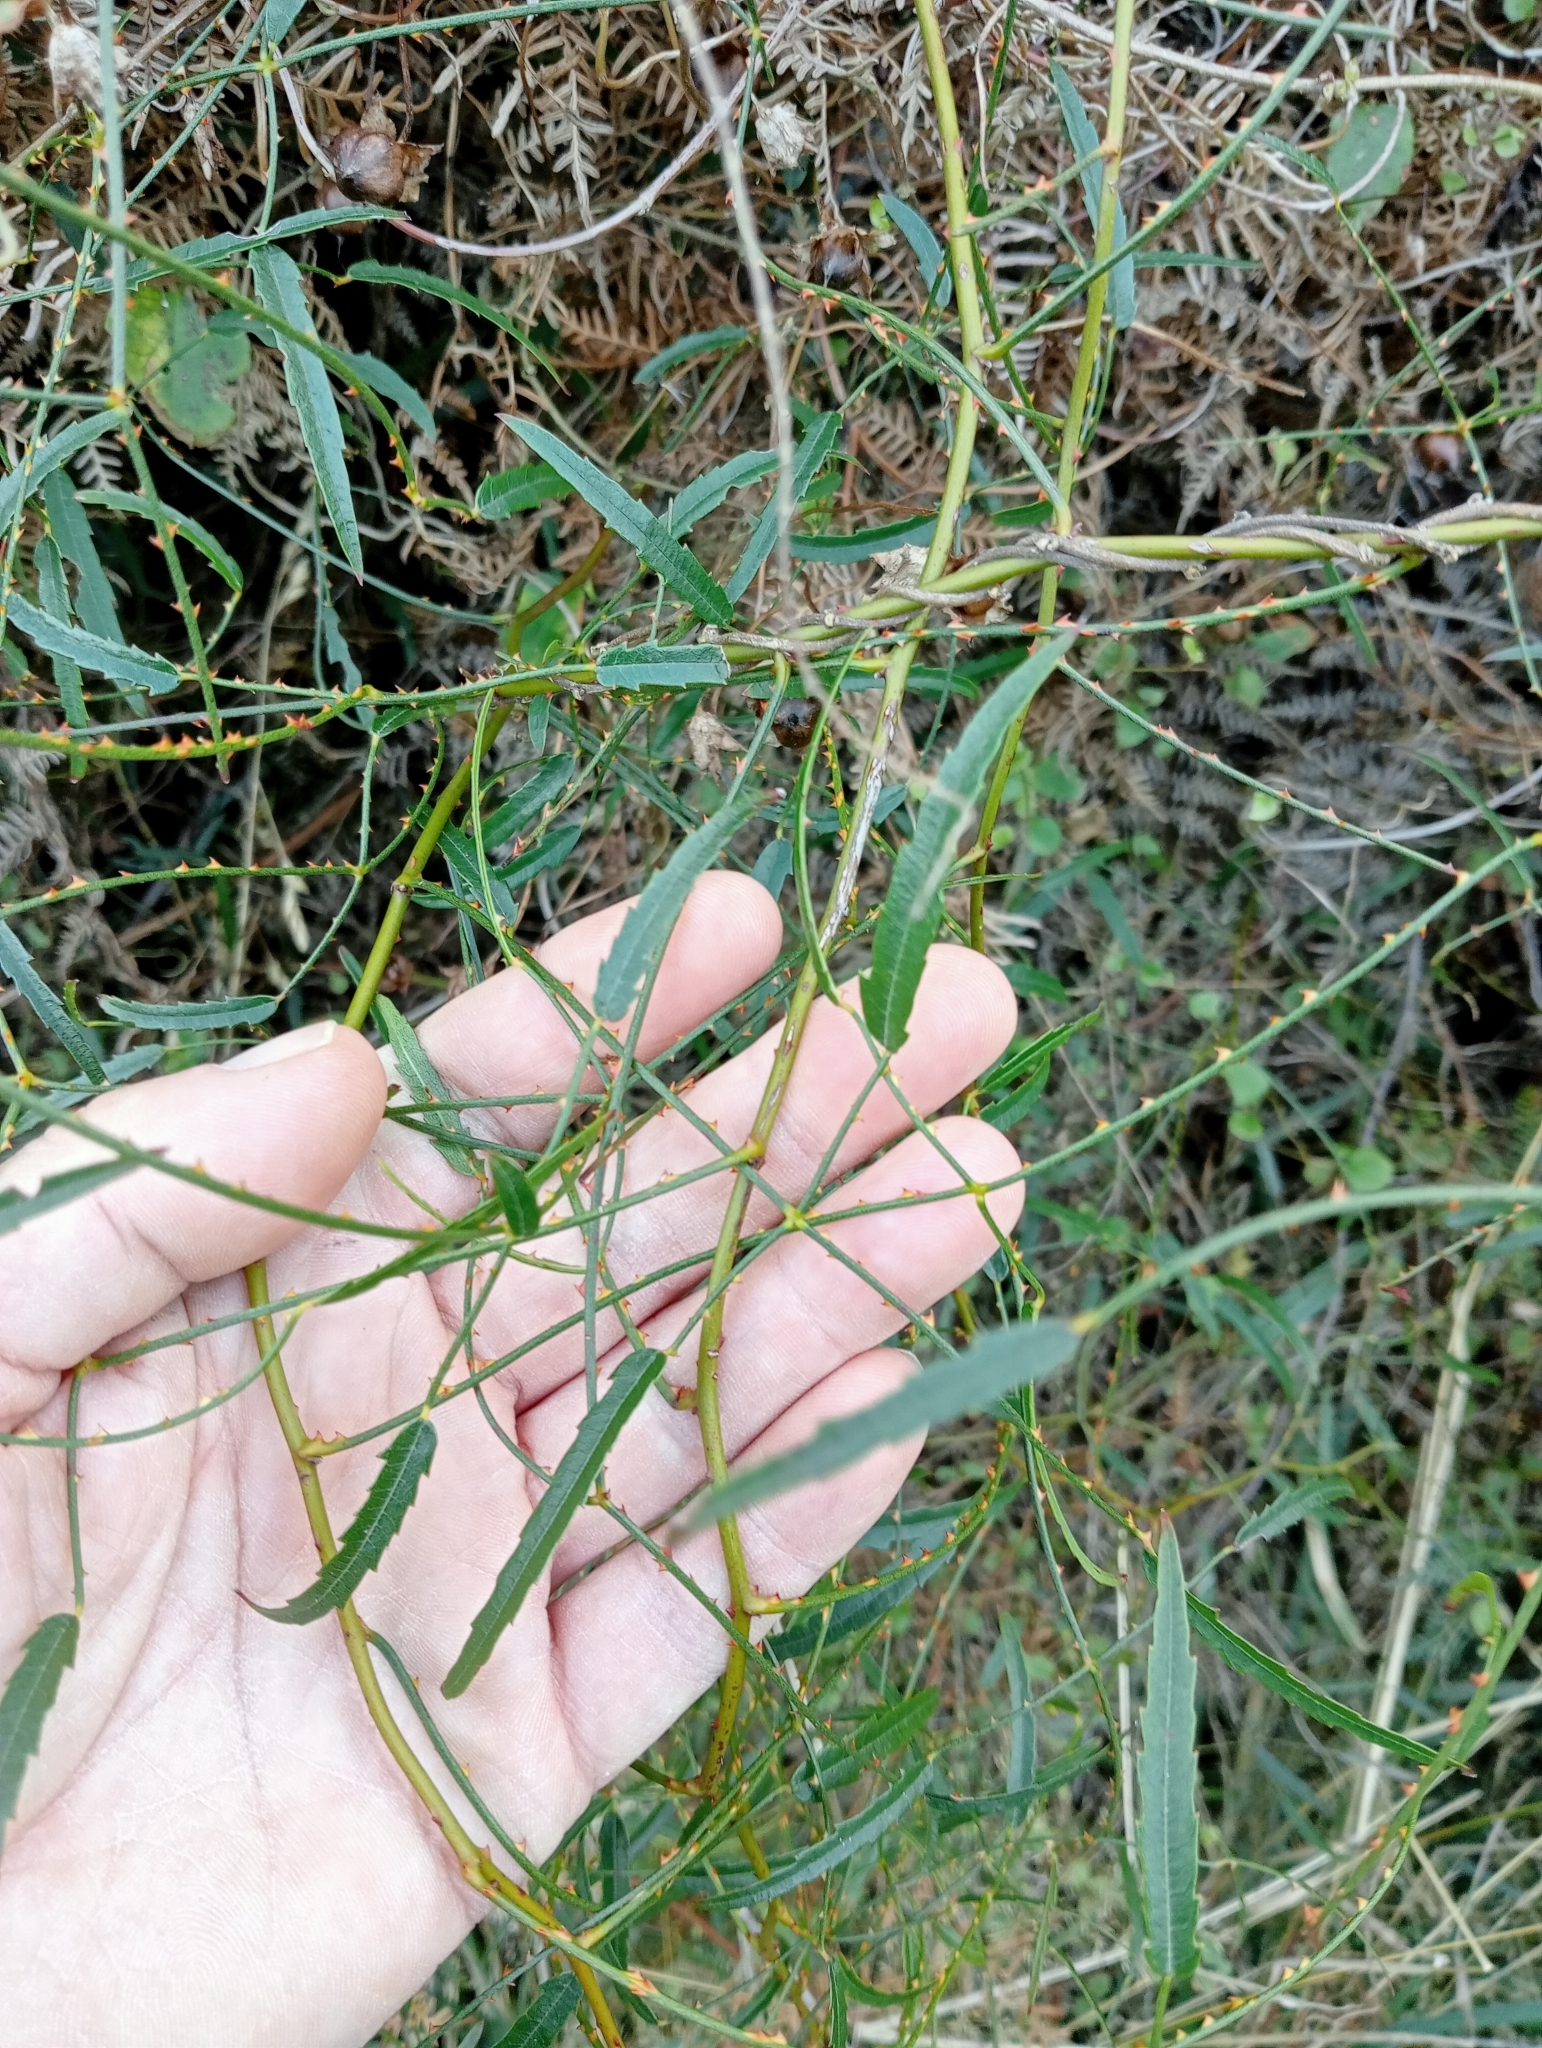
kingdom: Plantae
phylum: Tracheophyta
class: Magnoliopsida
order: Rosales
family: Rosaceae
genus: Rubus
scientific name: Rubus squarrosus
